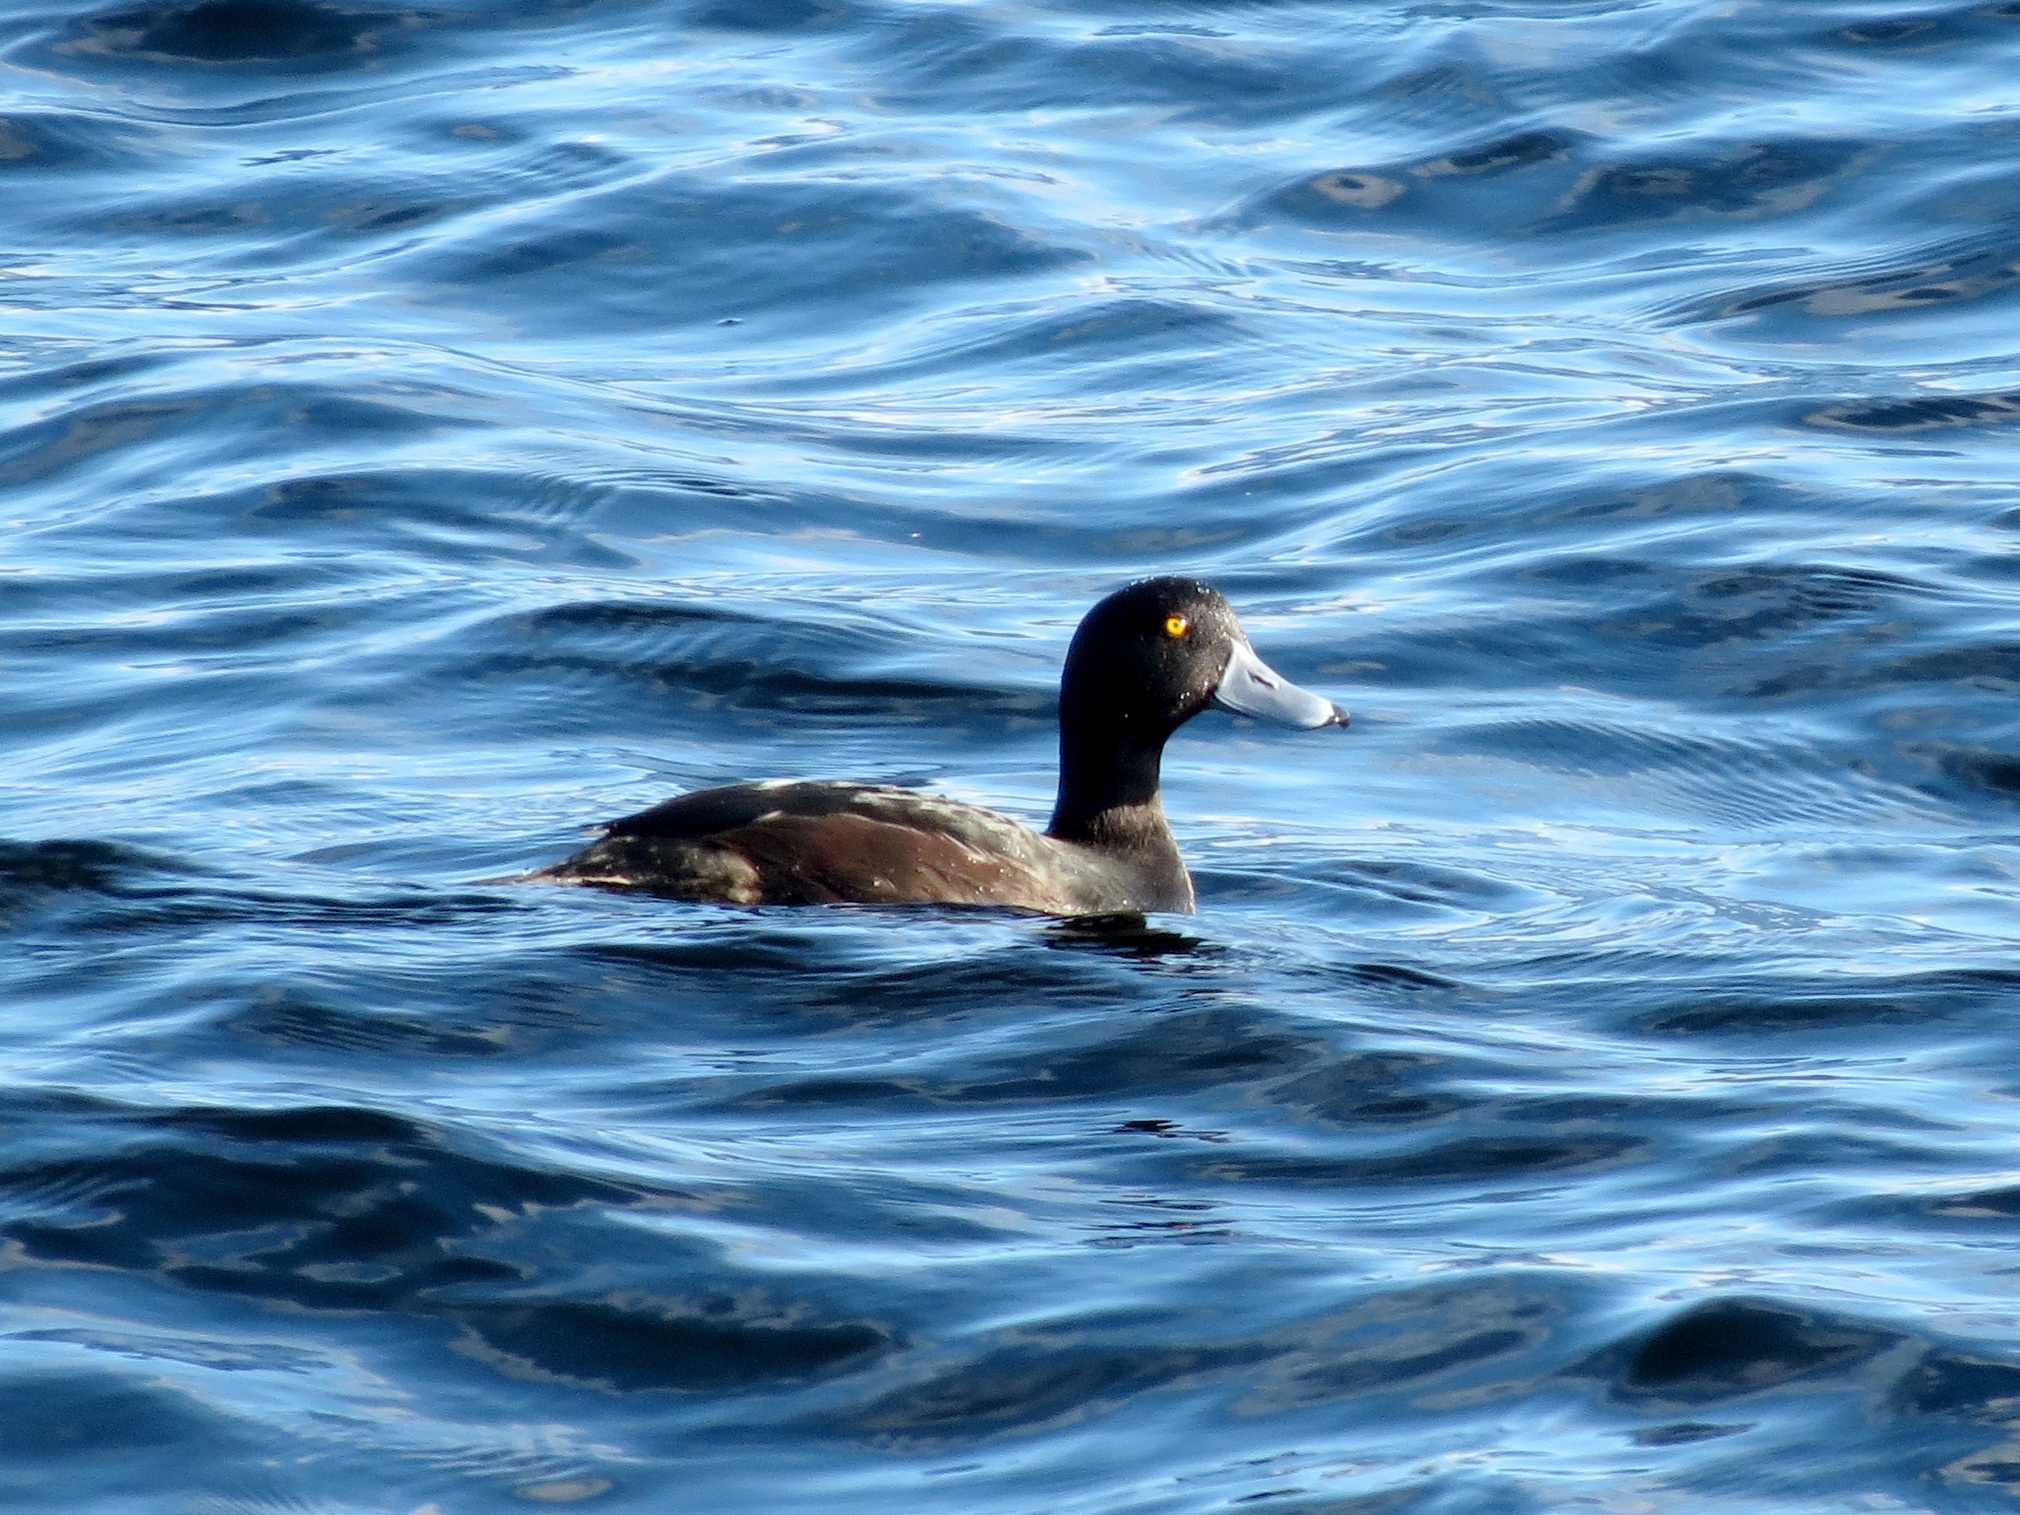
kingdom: Animalia
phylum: Chordata
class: Aves
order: Anseriformes
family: Anatidae
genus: Aythya
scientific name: Aythya novaeseelandiae
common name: New zealand scaup
